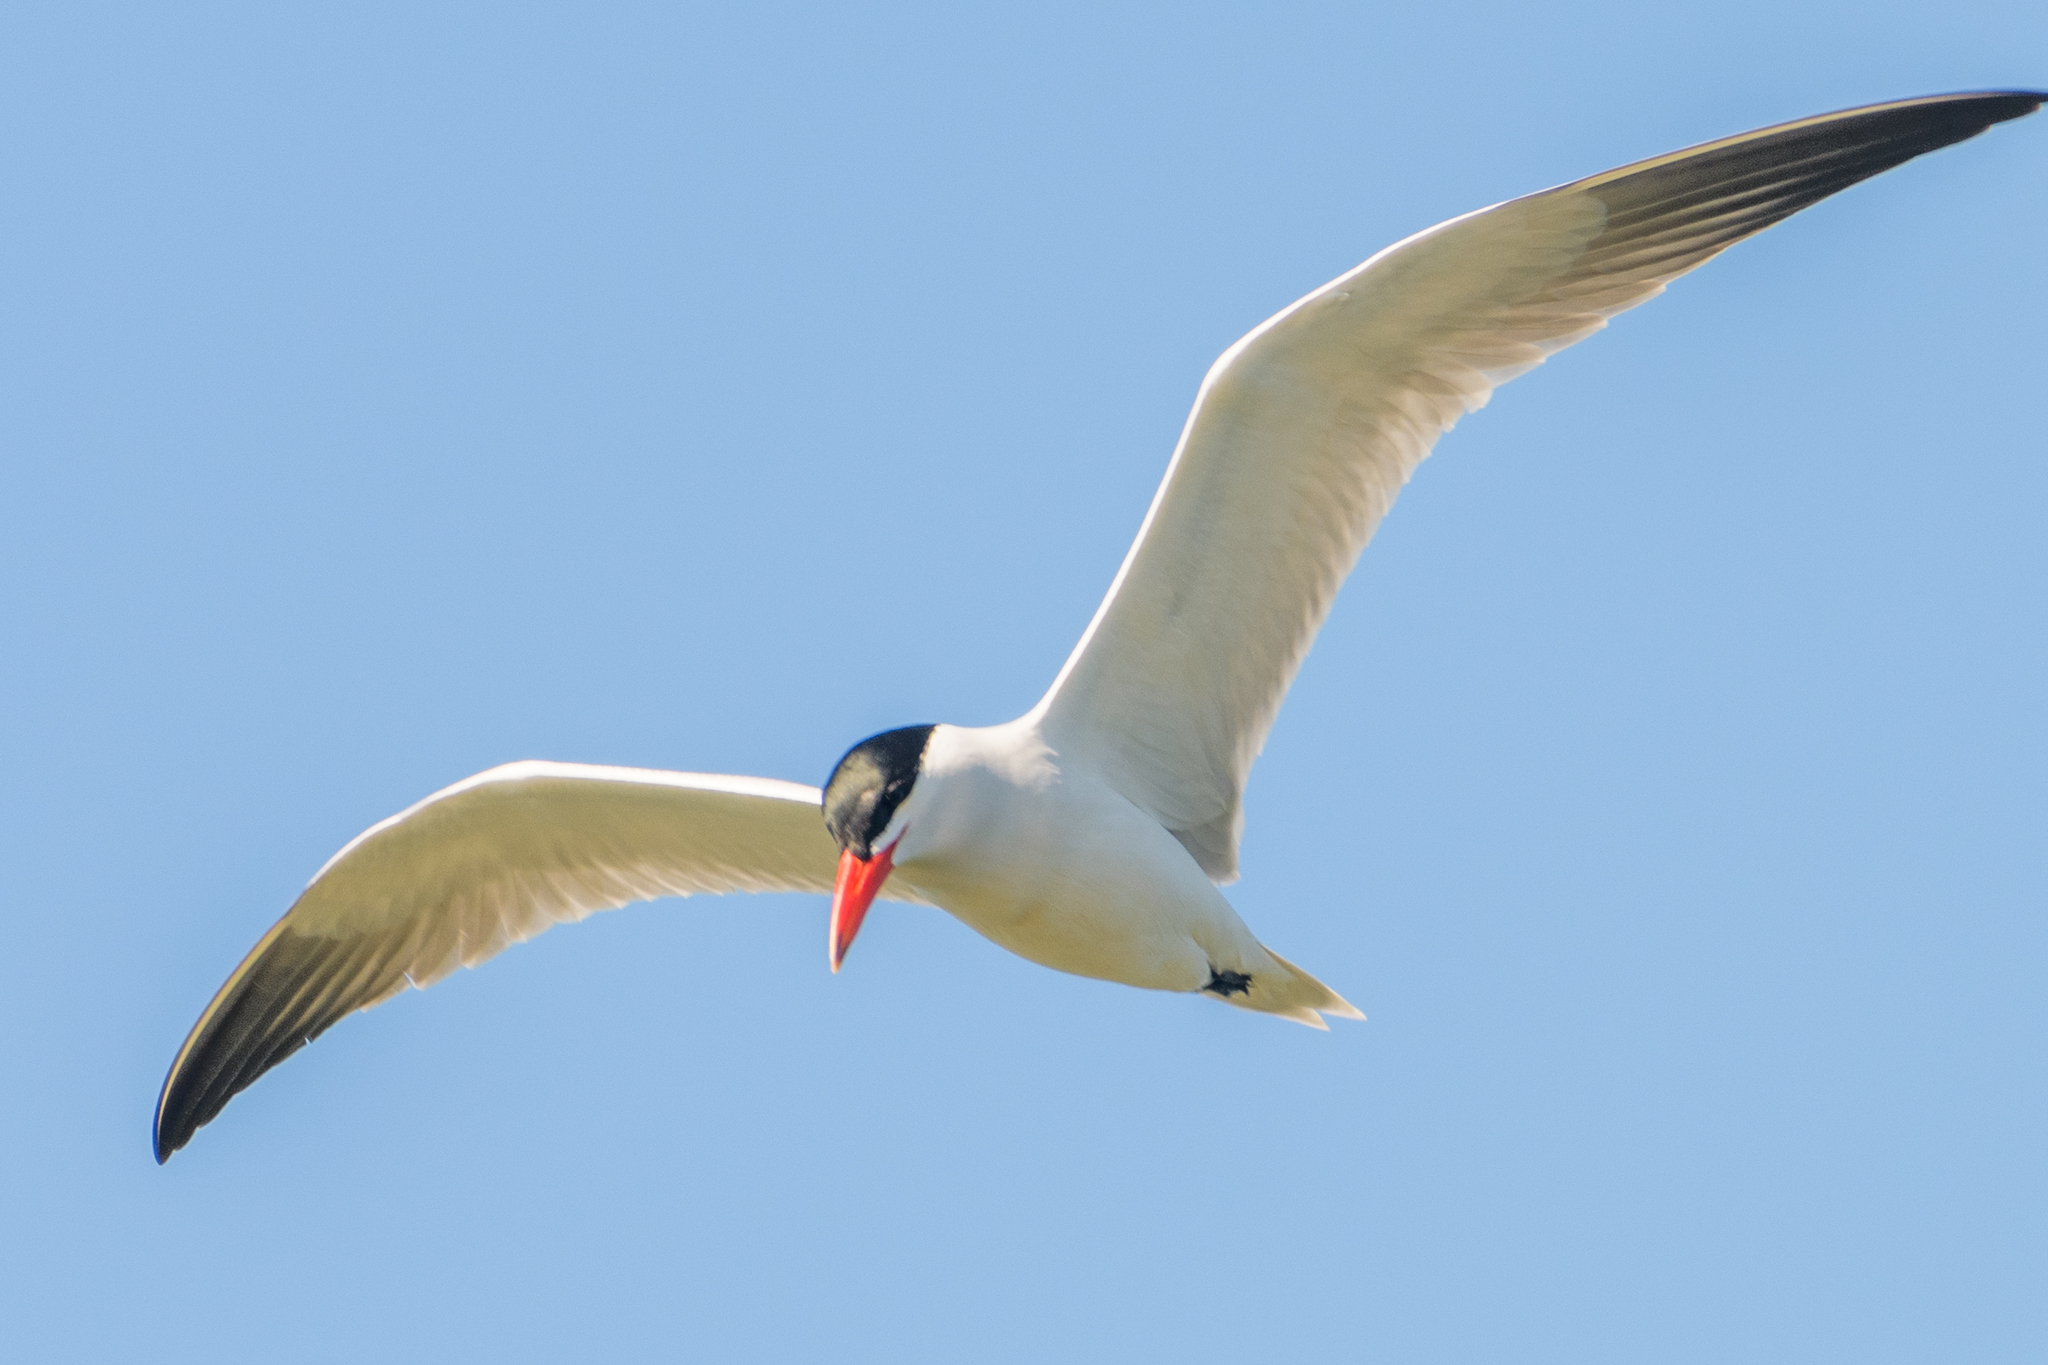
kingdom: Animalia
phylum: Chordata
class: Aves
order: Charadriiformes
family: Laridae
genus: Hydroprogne
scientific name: Hydroprogne caspia
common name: Caspian tern
